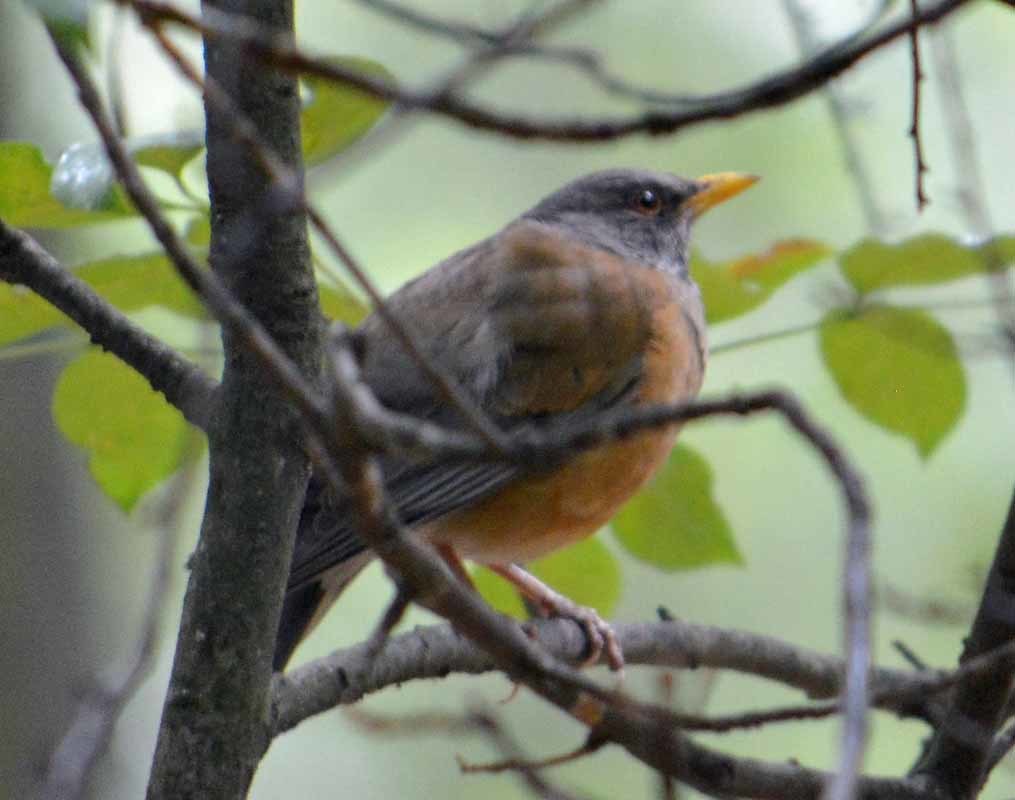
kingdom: Animalia
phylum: Chordata
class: Aves
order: Passeriformes
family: Turdidae
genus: Turdus
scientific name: Turdus rufopalliatus
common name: Rufous-backed robin
